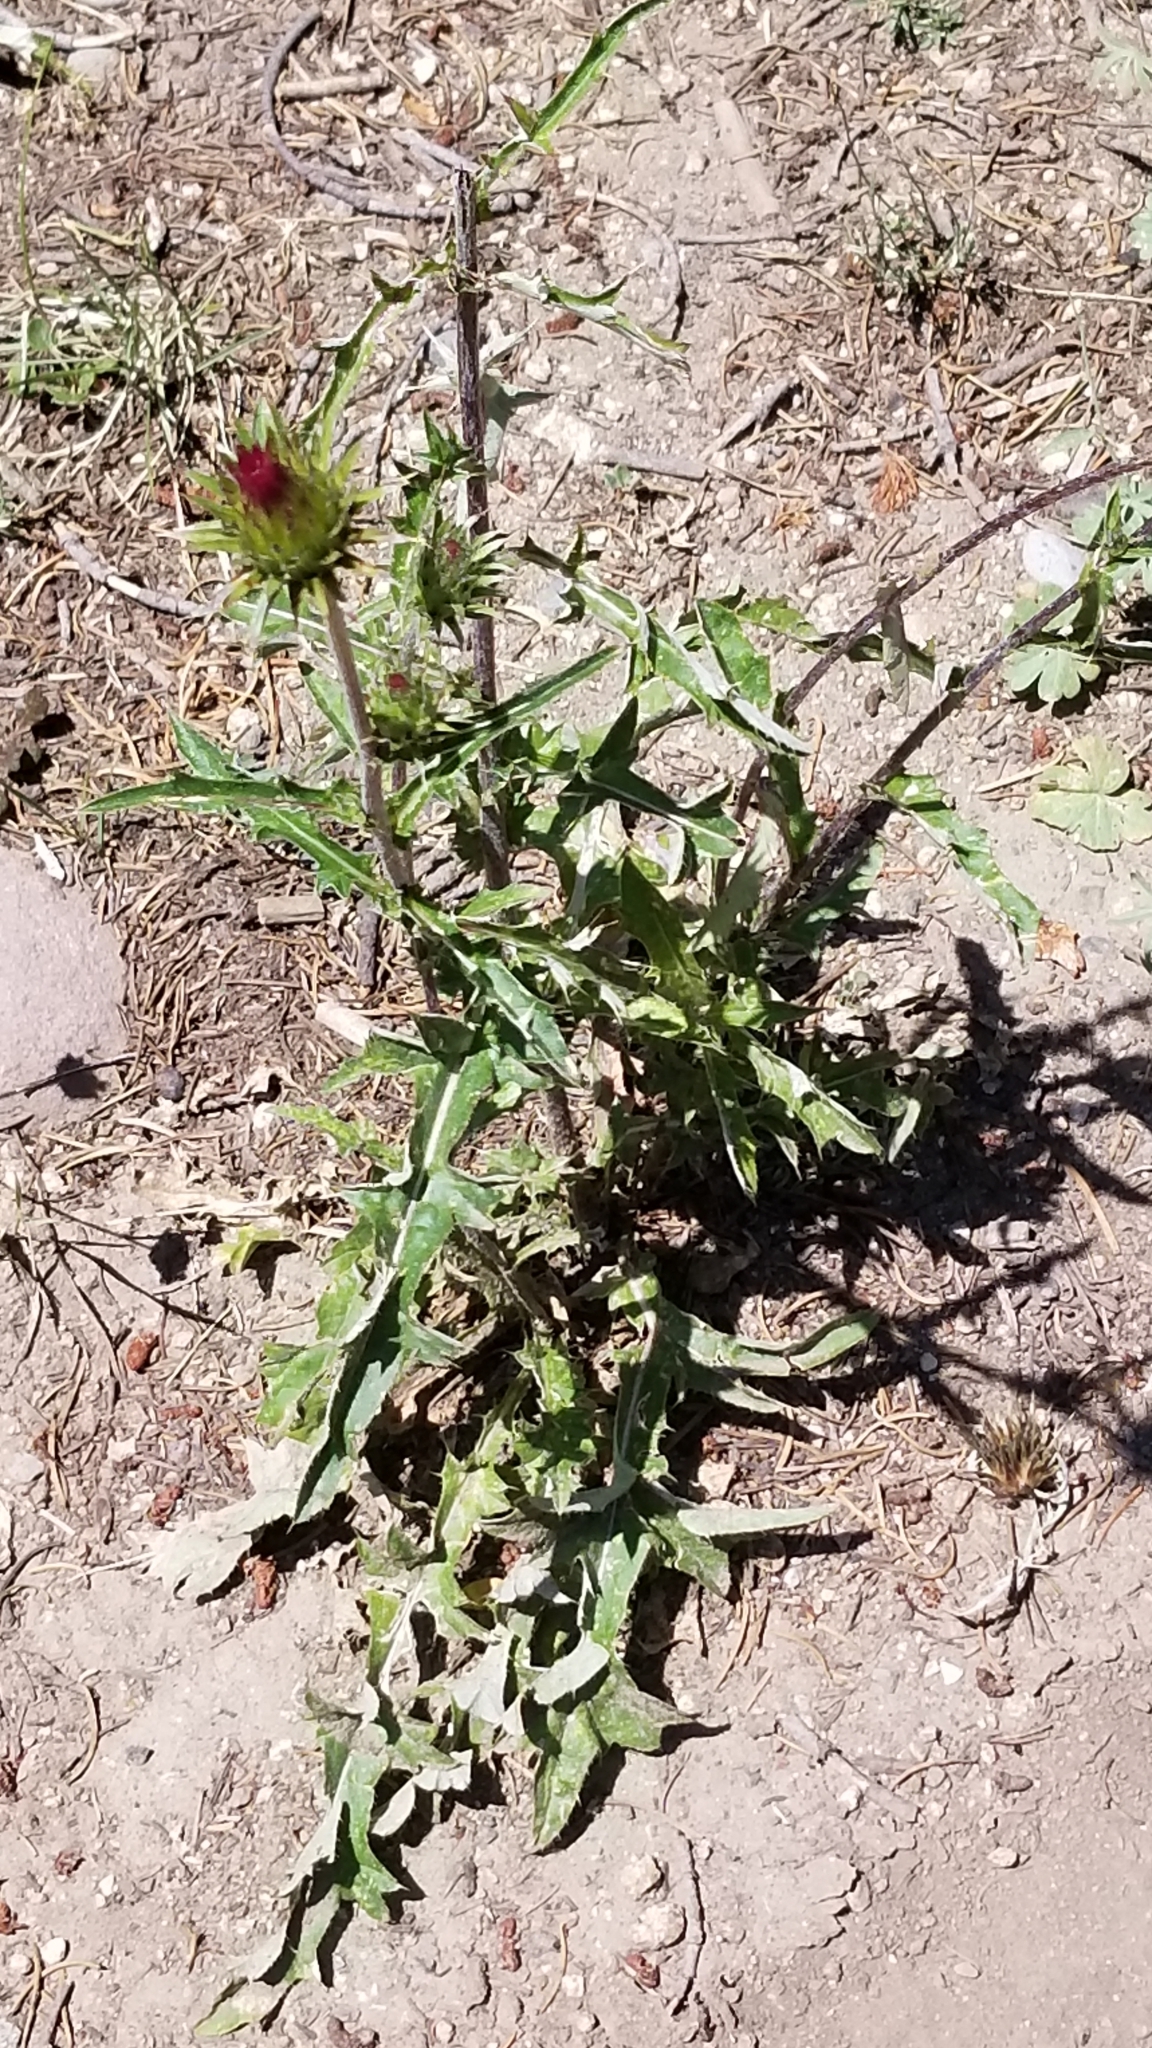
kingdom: Plantae
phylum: Tracheophyta
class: Magnoliopsida
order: Asterales
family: Asteraceae
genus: Cirsium
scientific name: Cirsium andersonii
